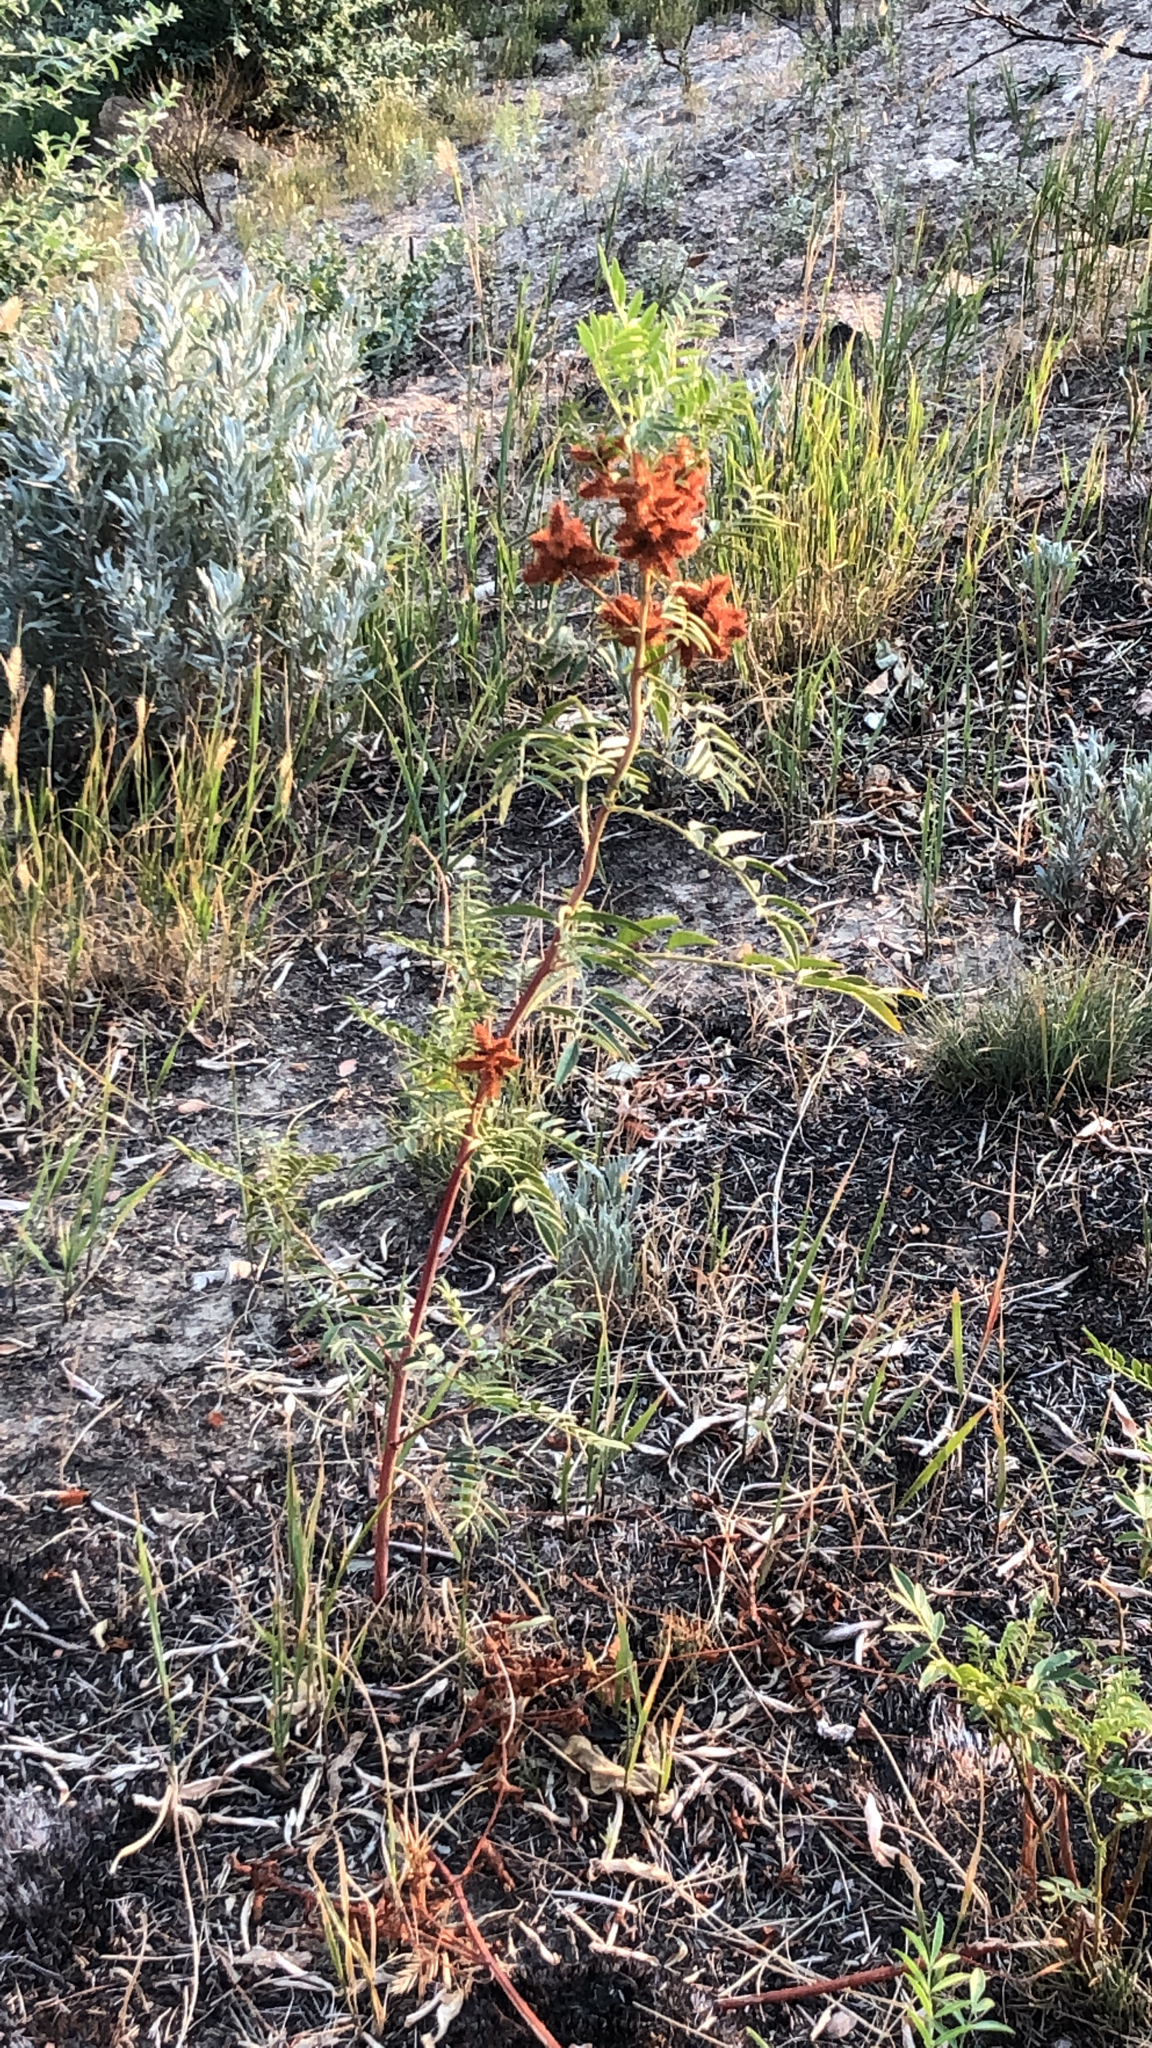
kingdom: Plantae
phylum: Tracheophyta
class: Magnoliopsida
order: Fabales
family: Fabaceae
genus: Glycyrrhiza
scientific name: Glycyrrhiza lepidota
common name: American liquorice
